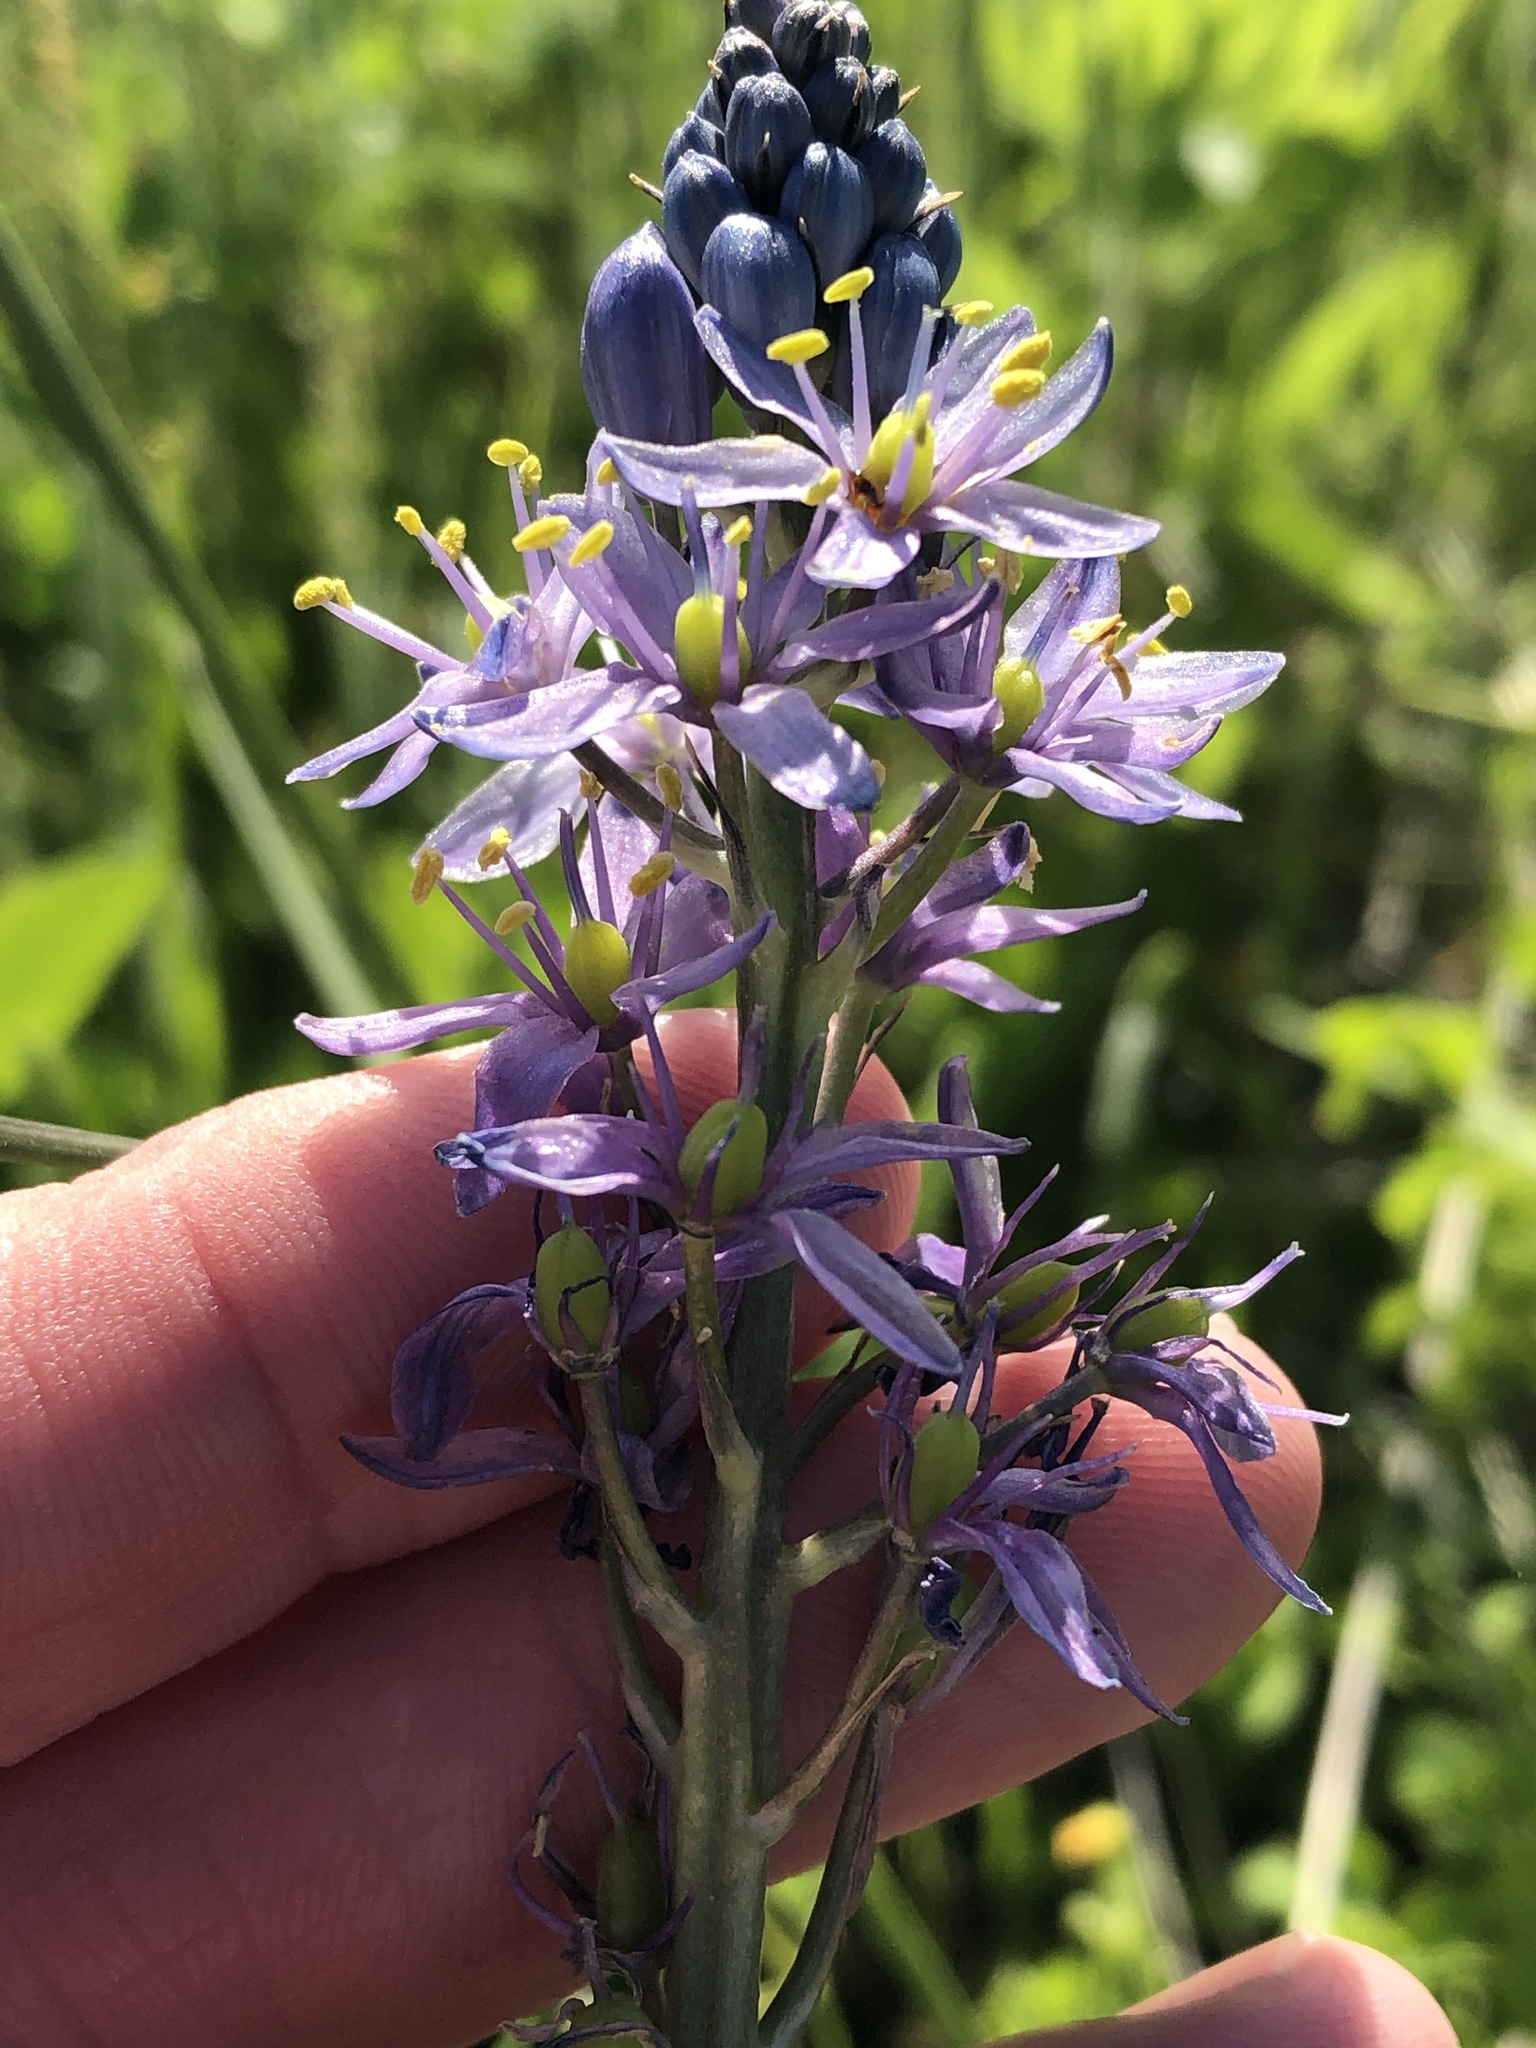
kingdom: Plantae
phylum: Tracheophyta
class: Liliopsida
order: Asparagales
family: Asparagaceae
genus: Camassia
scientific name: Camassia scilloides
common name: Wild hyacinth
